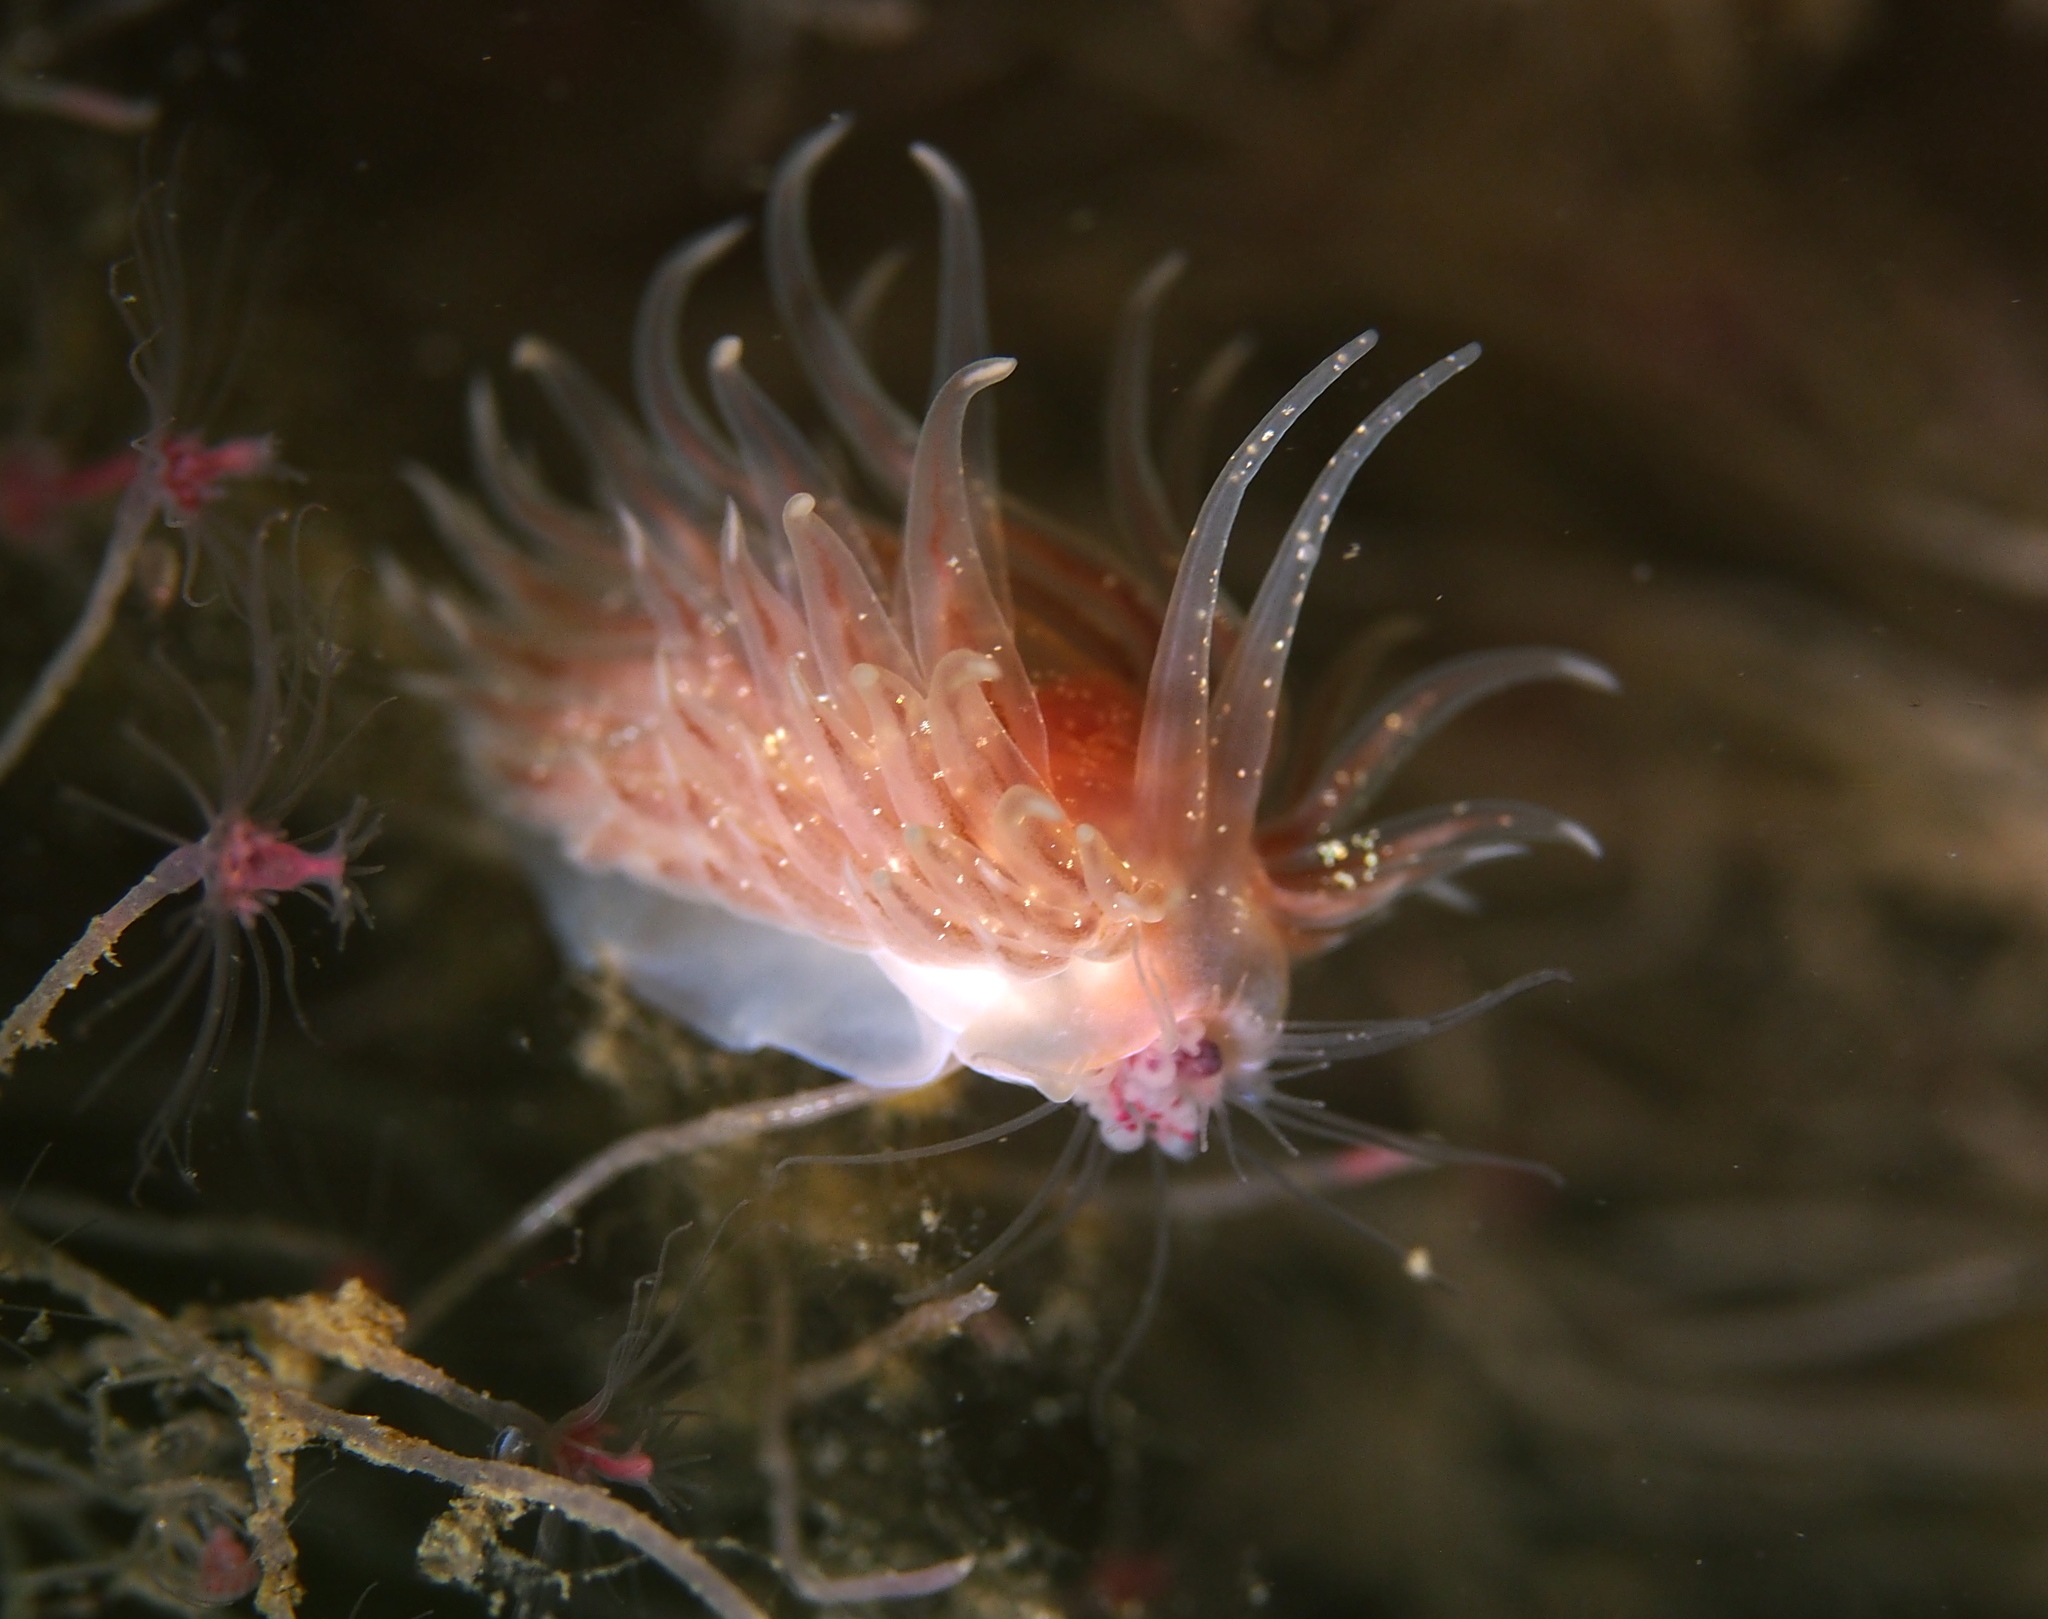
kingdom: Animalia
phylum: Mollusca
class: Gastropoda
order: Nudibranchia
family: Cumanotidae
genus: Cumanotus
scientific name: Cumanotus beaumonti
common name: Polyp aeolis
